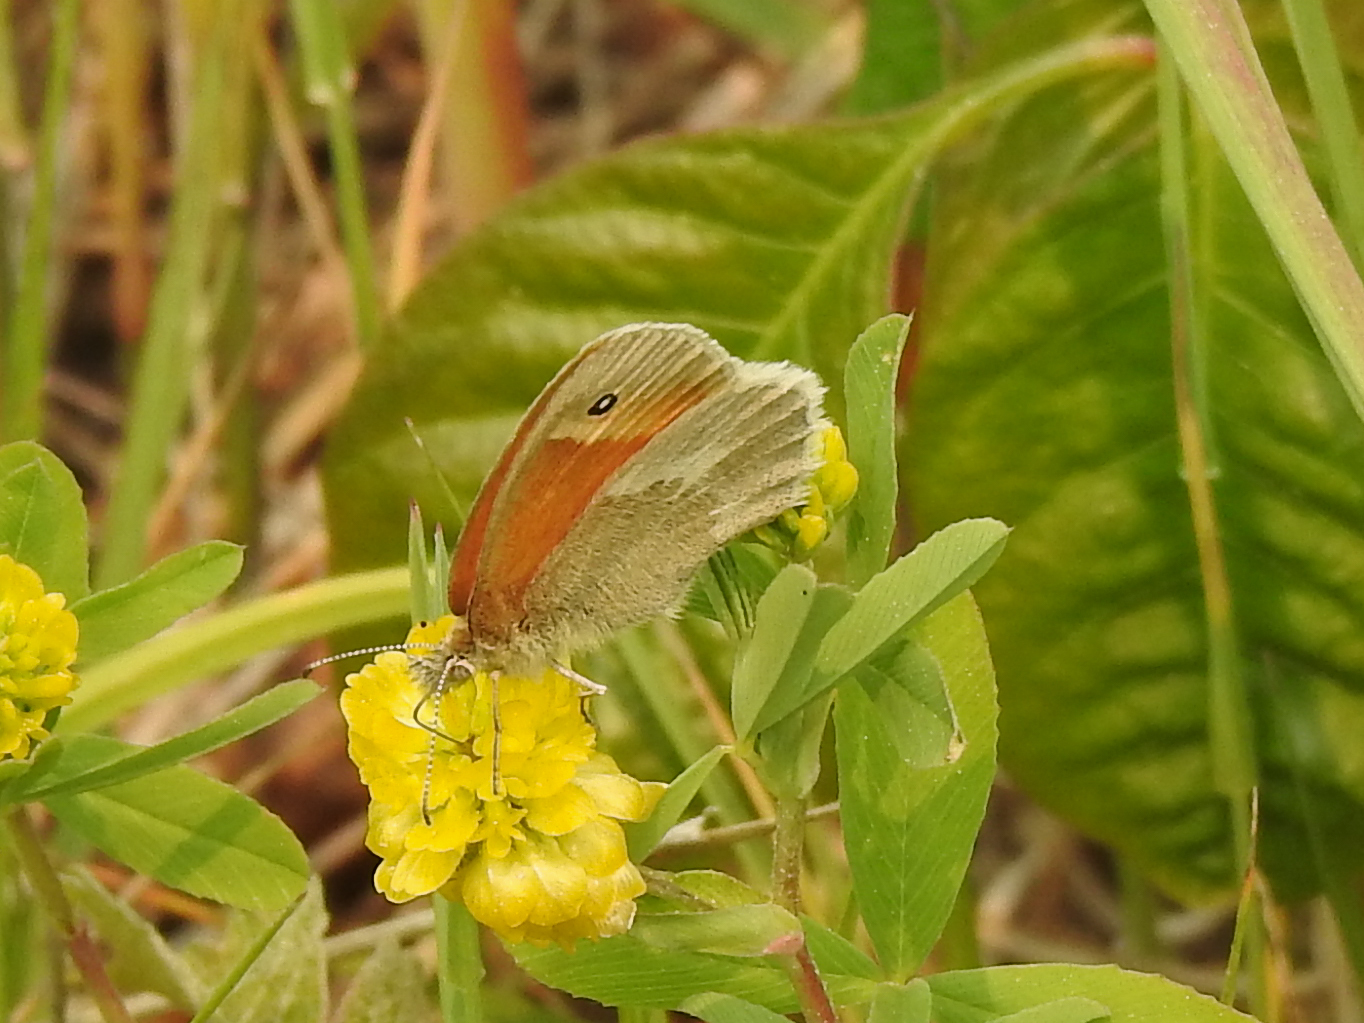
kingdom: Animalia
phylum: Arthropoda
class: Insecta
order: Lepidoptera
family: Nymphalidae
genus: Coenonympha
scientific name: Coenonympha california
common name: Common ringlet
